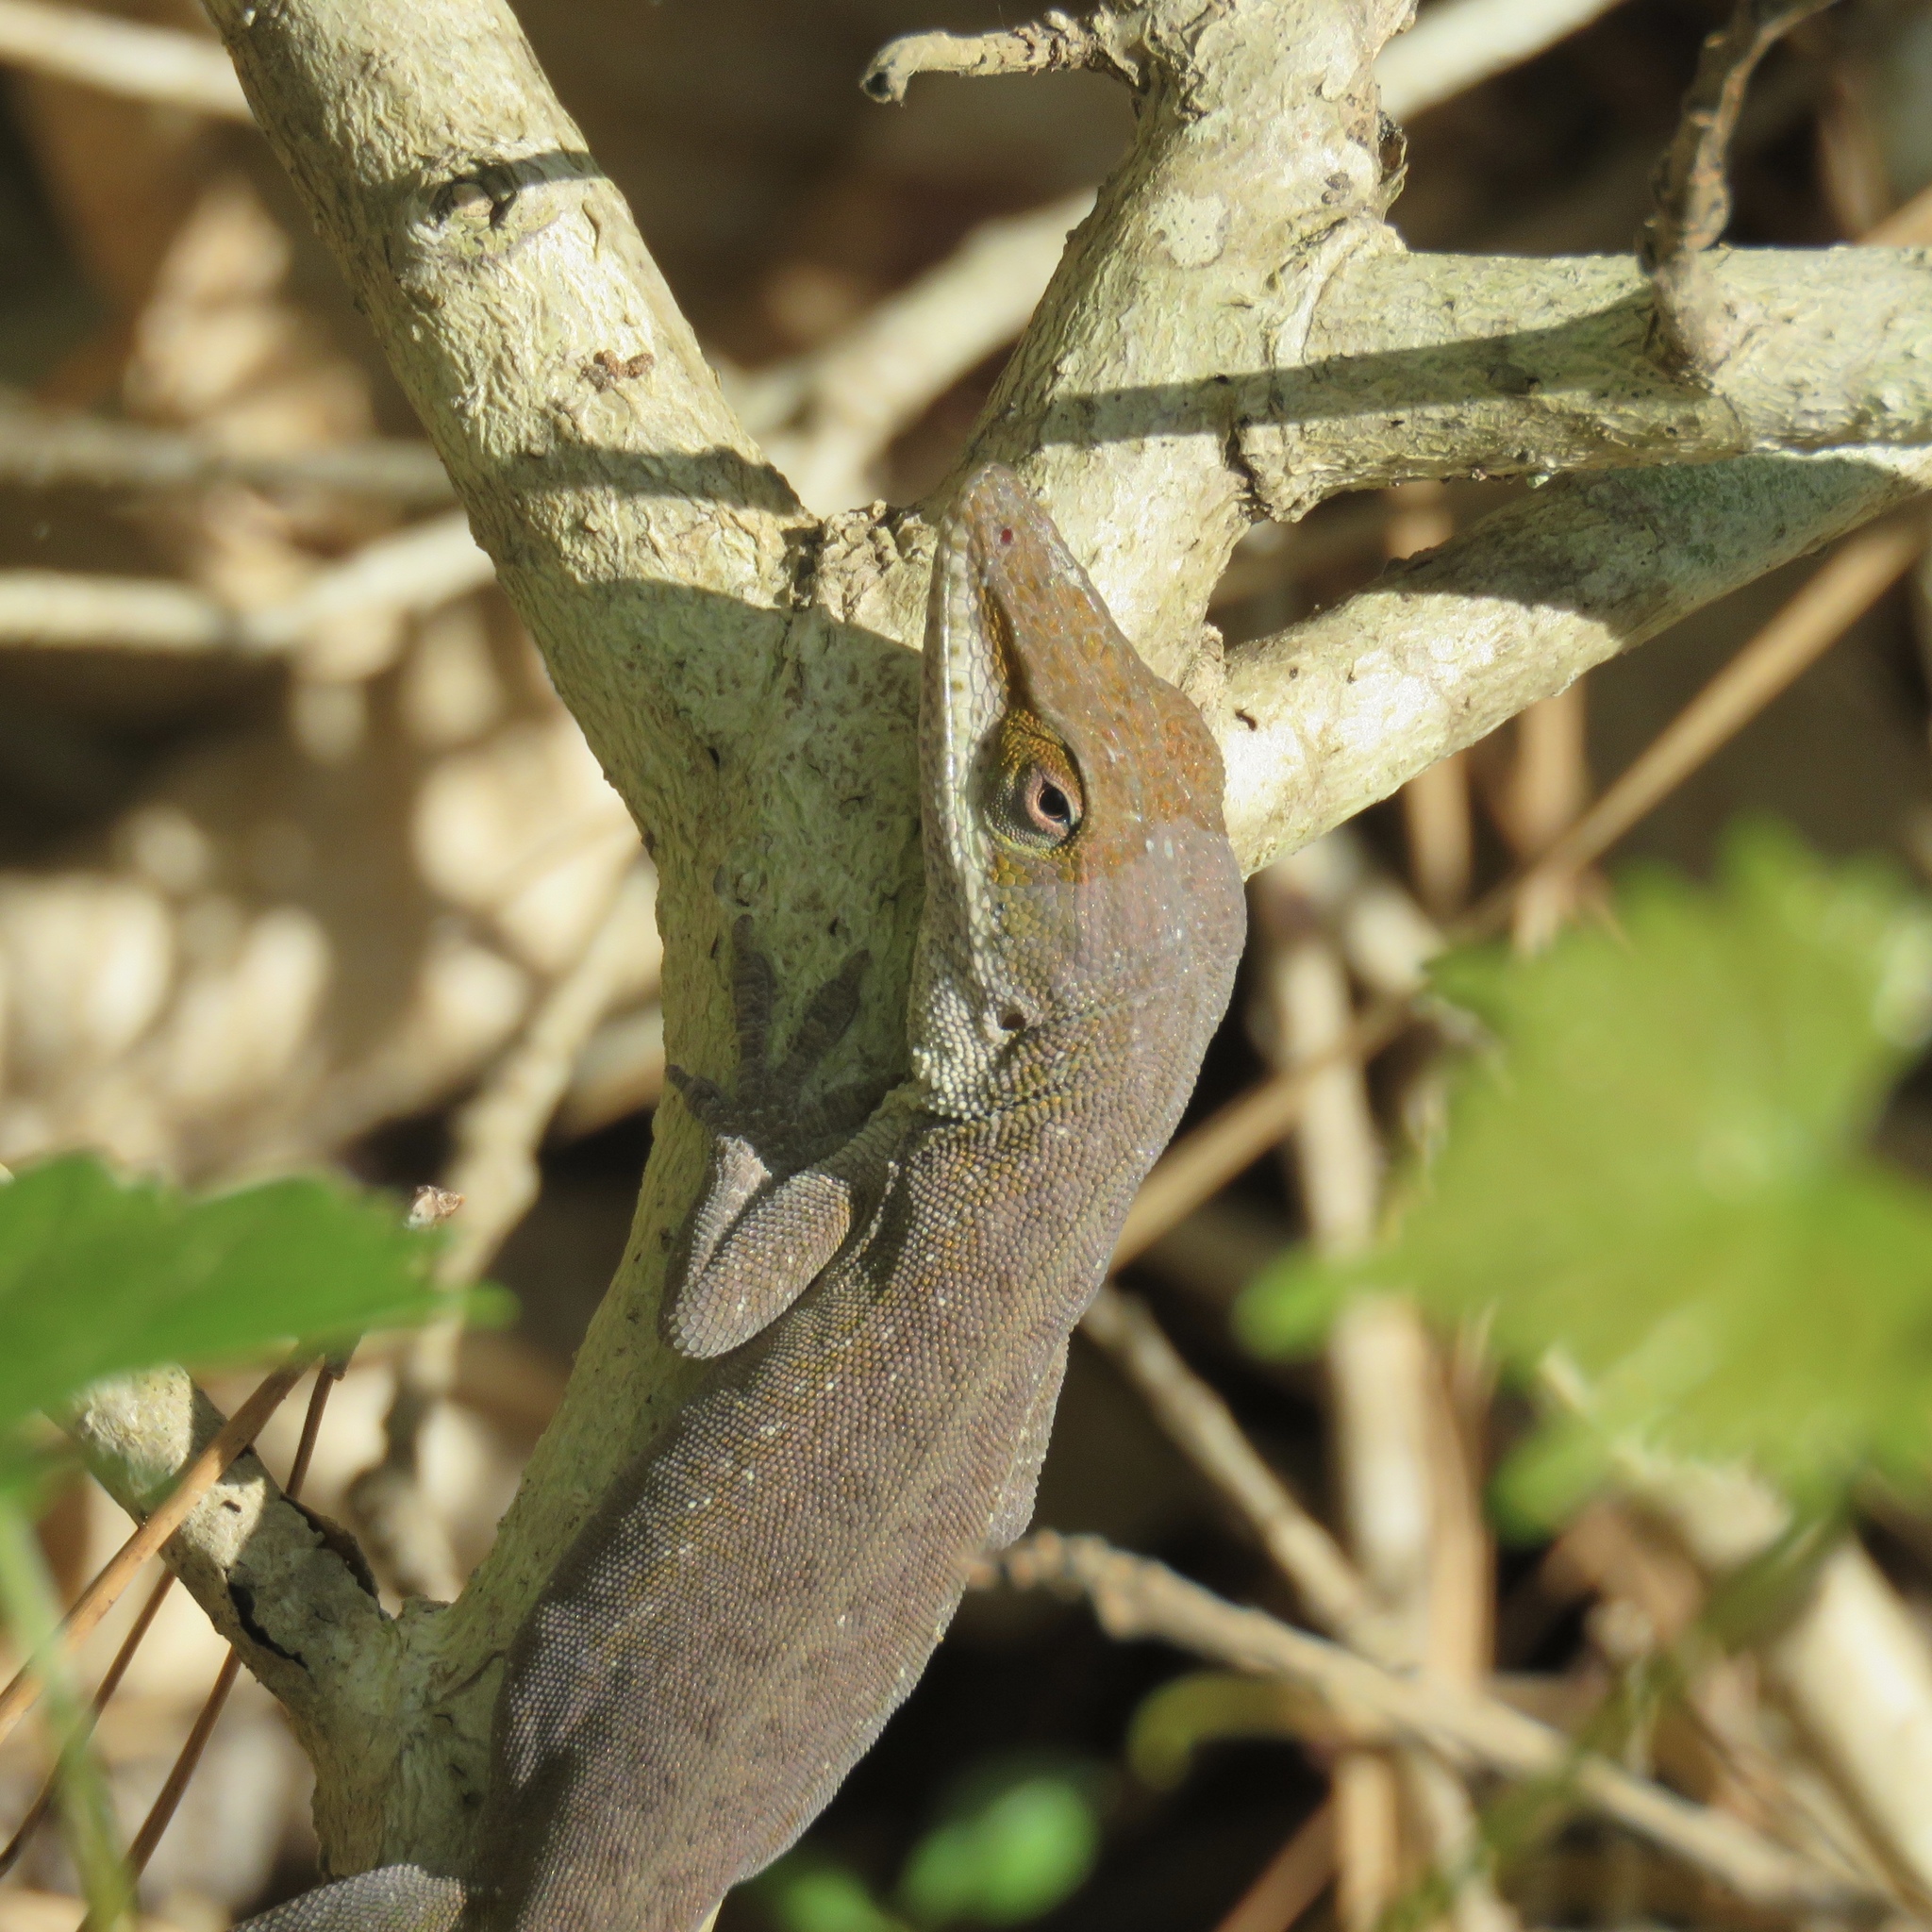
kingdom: Animalia
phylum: Chordata
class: Squamata
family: Dactyloidae
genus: Anolis
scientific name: Anolis carolinensis
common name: Green anole
